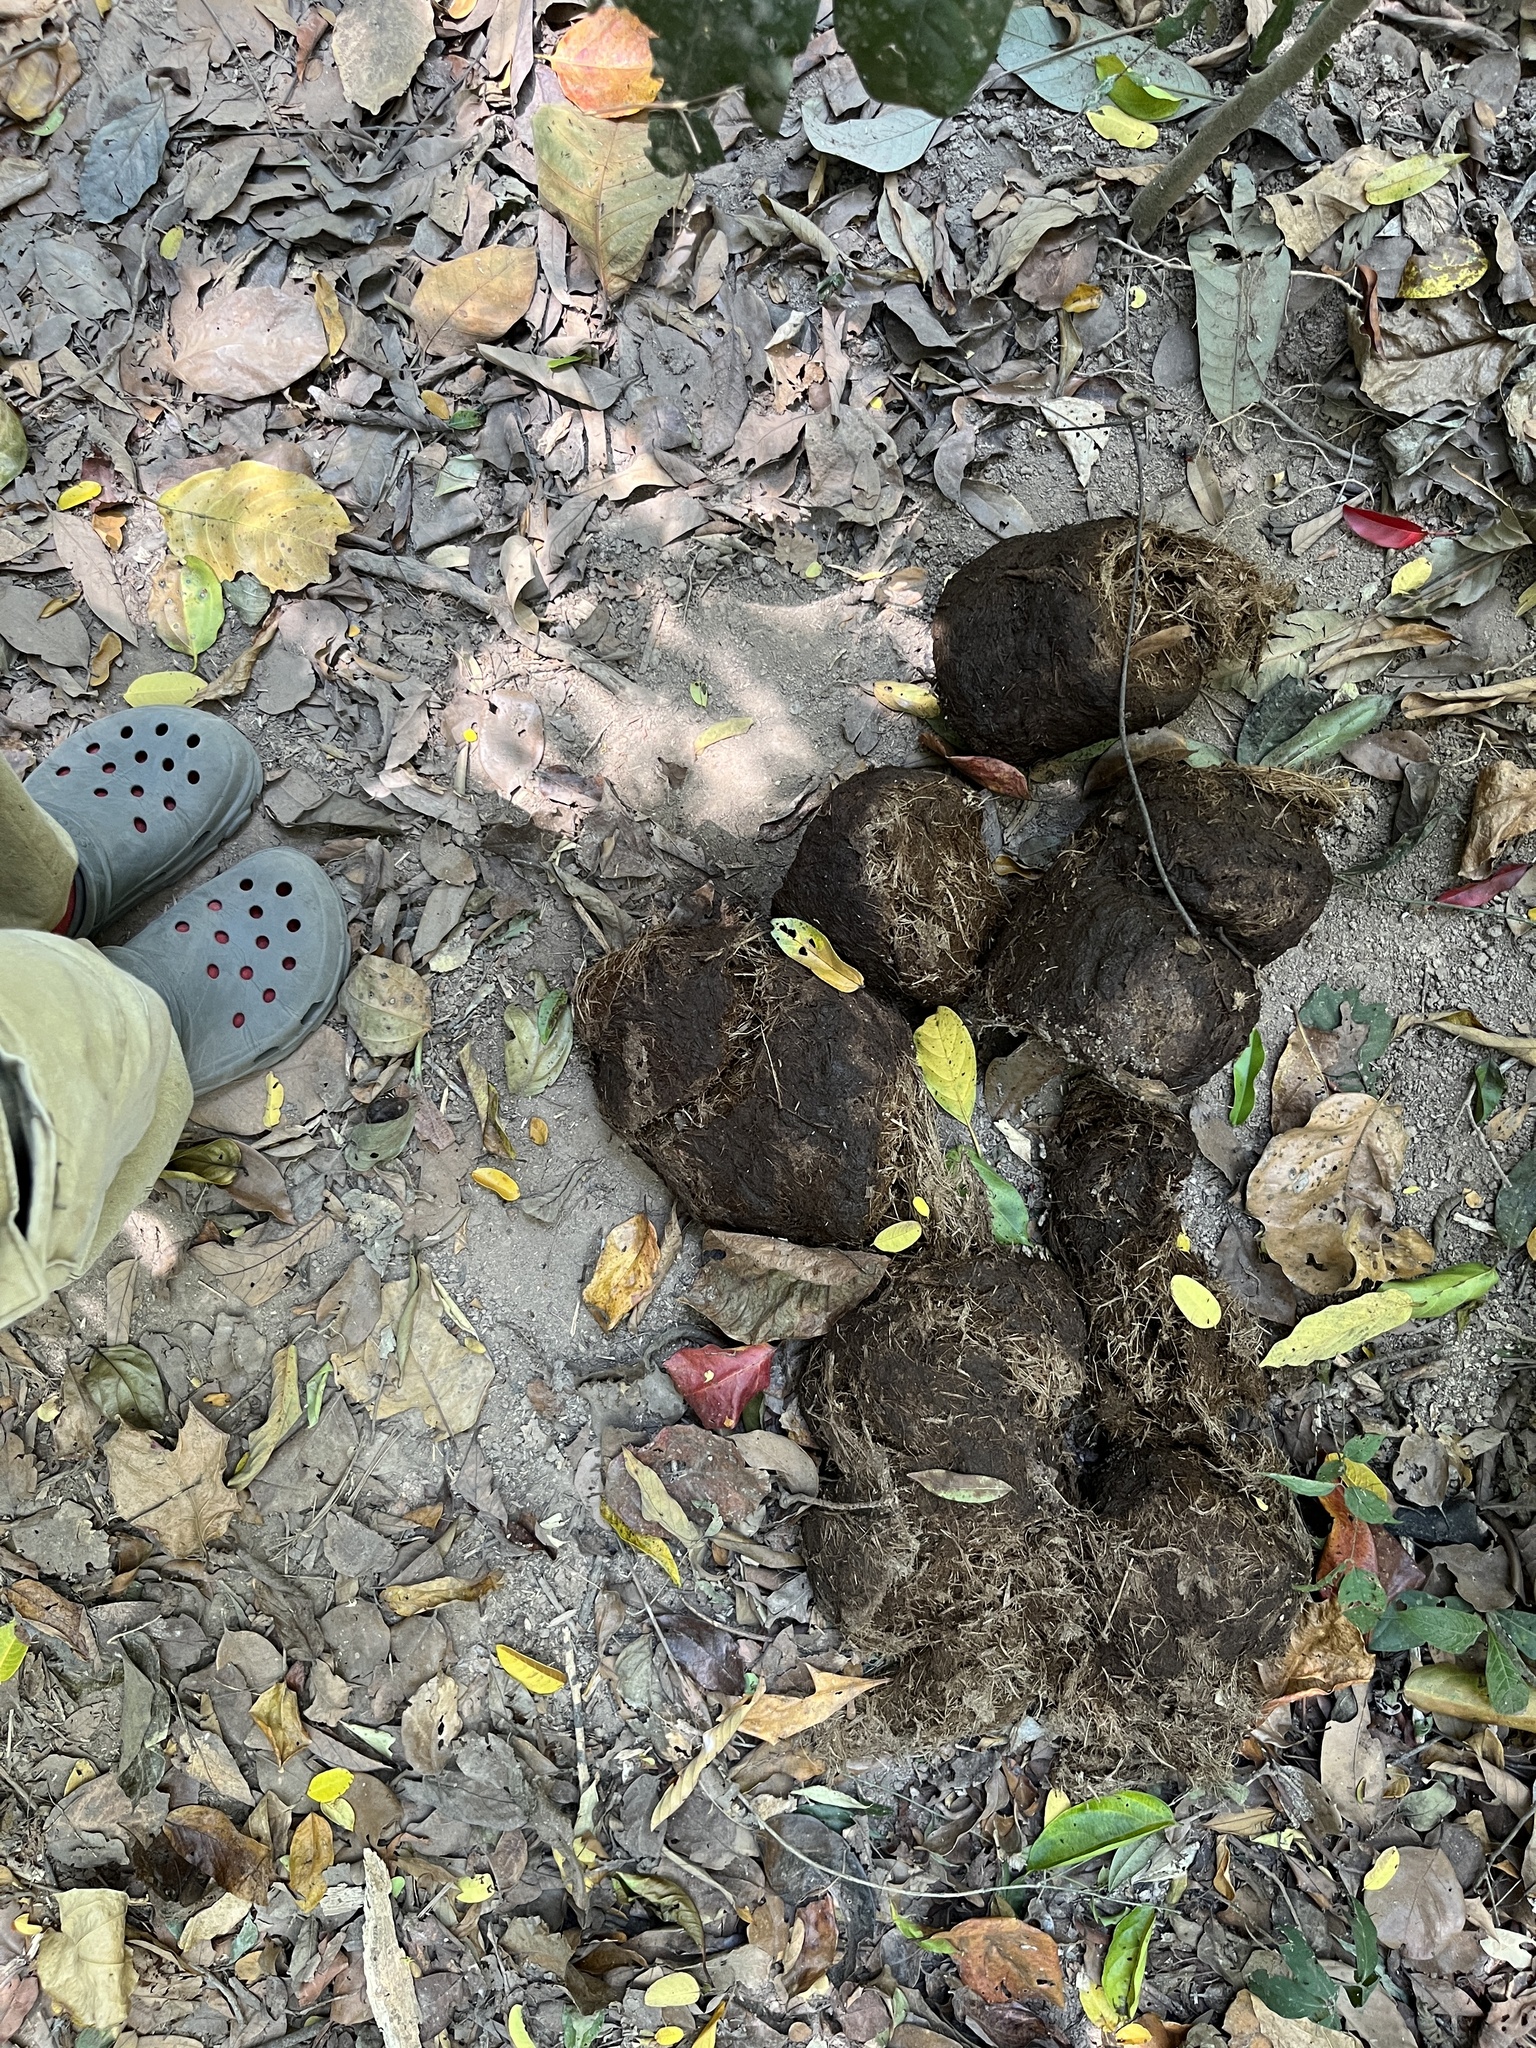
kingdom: Animalia
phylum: Chordata
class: Mammalia
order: Proboscidea
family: Elephantidae
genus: Elephas
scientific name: Elephas maximus
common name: Asian elephant
